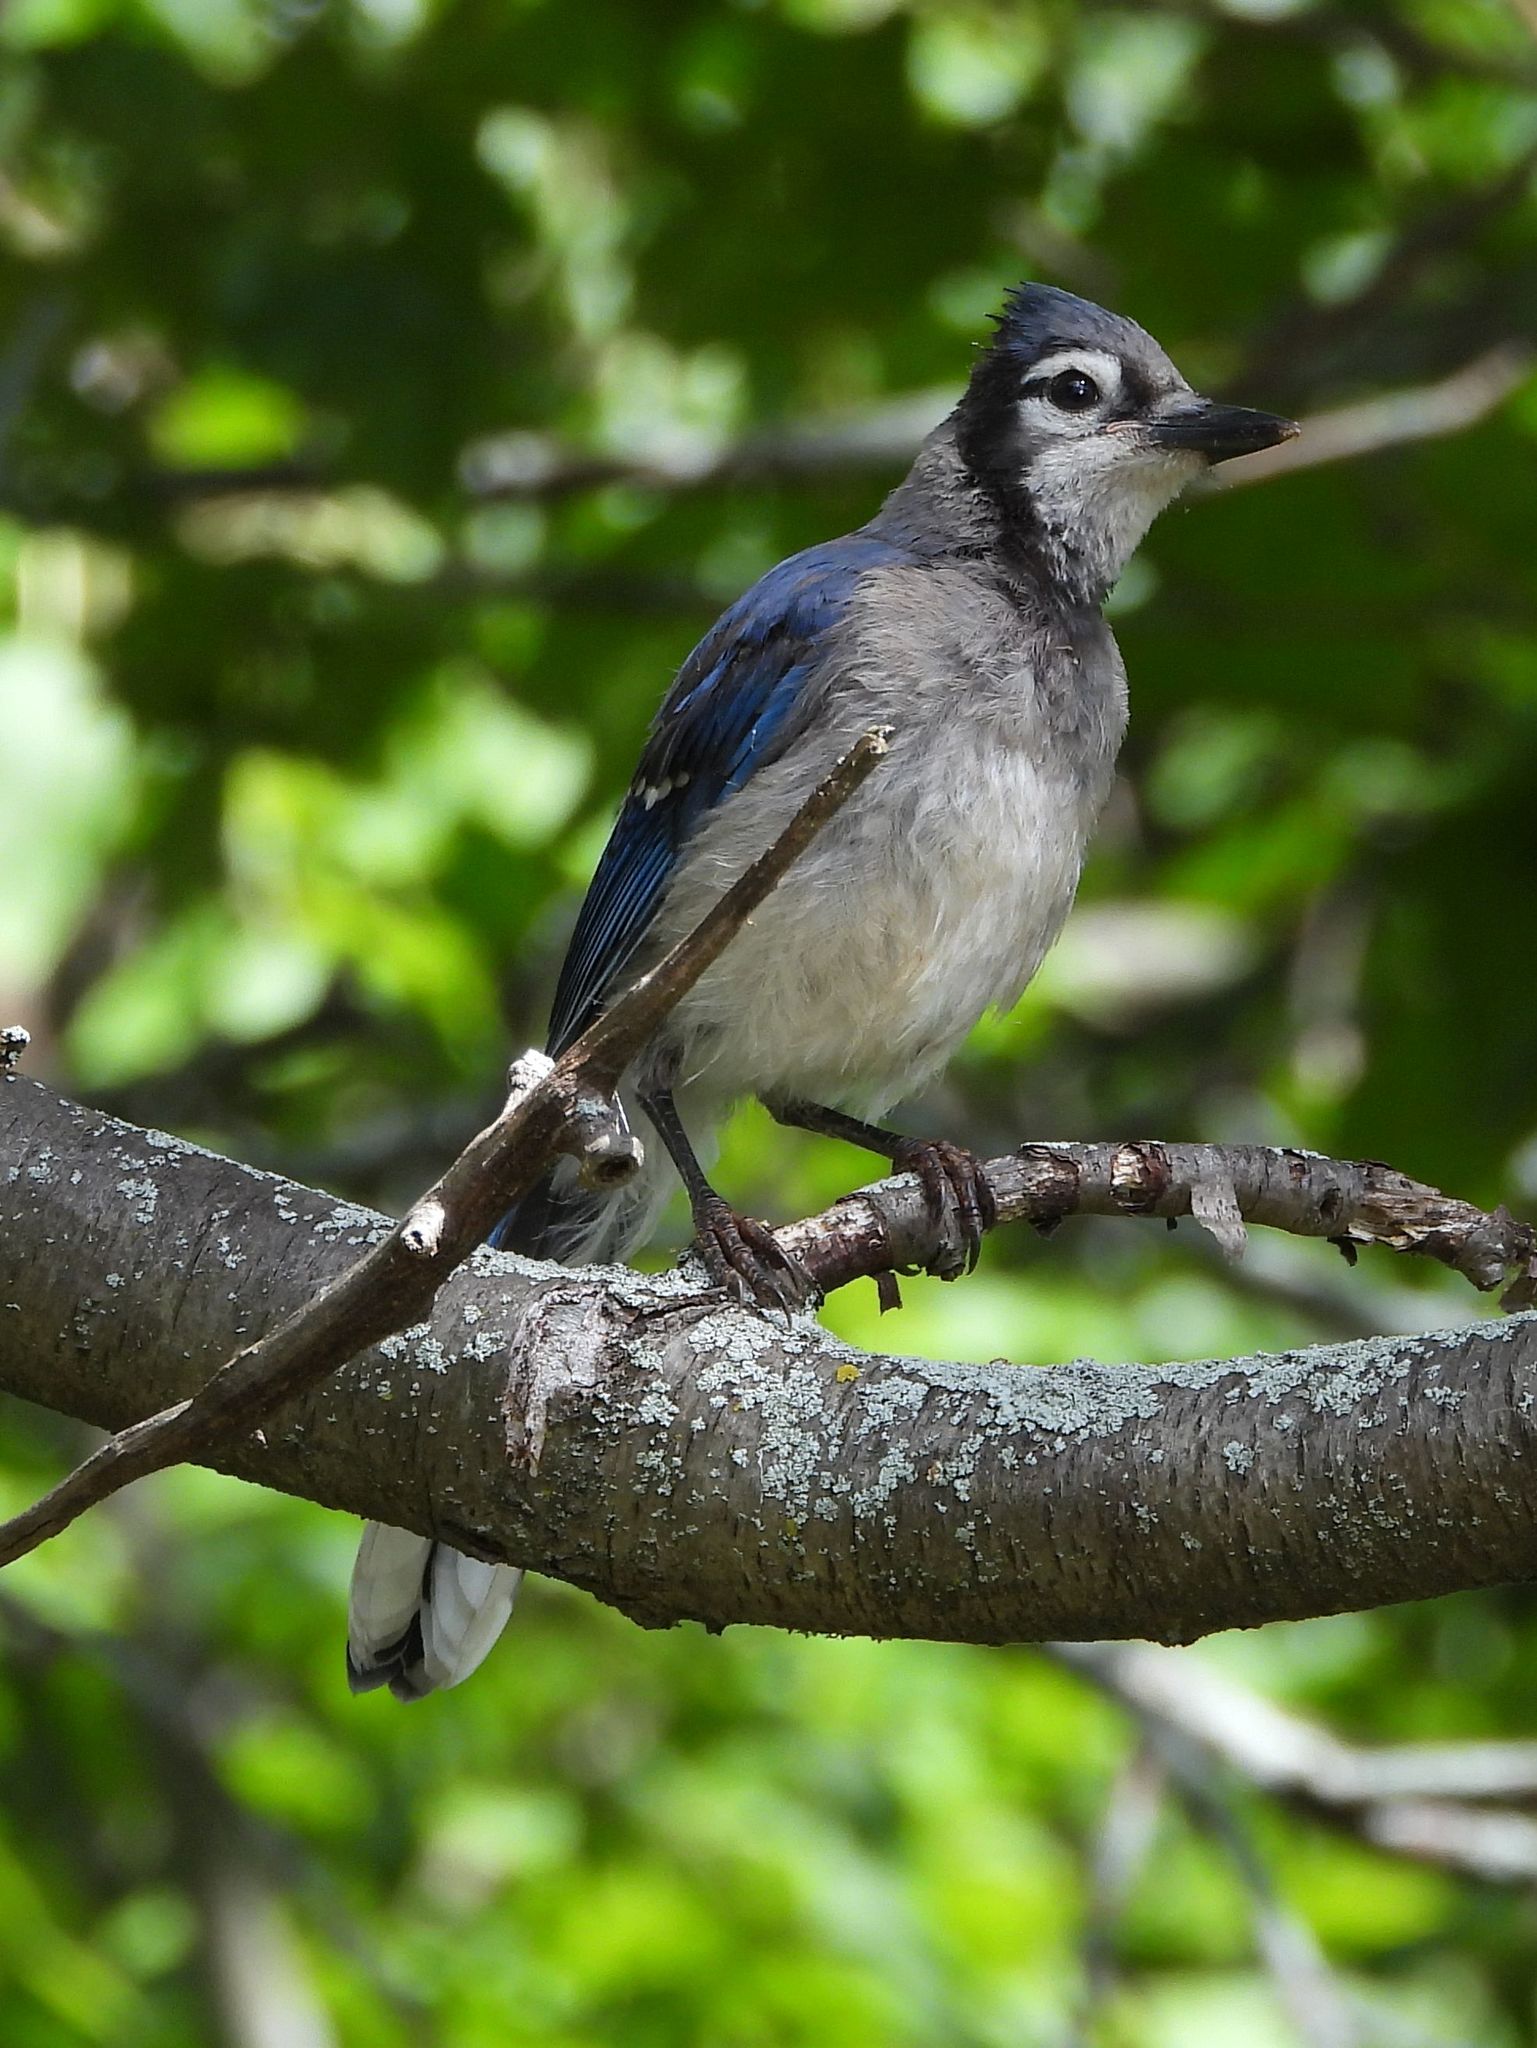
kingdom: Animalia
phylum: Chordata
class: Aves
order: Passeriformes
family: Corvidae
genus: Cyanocitta
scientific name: Cyanocitta cristata
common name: Blue jay
